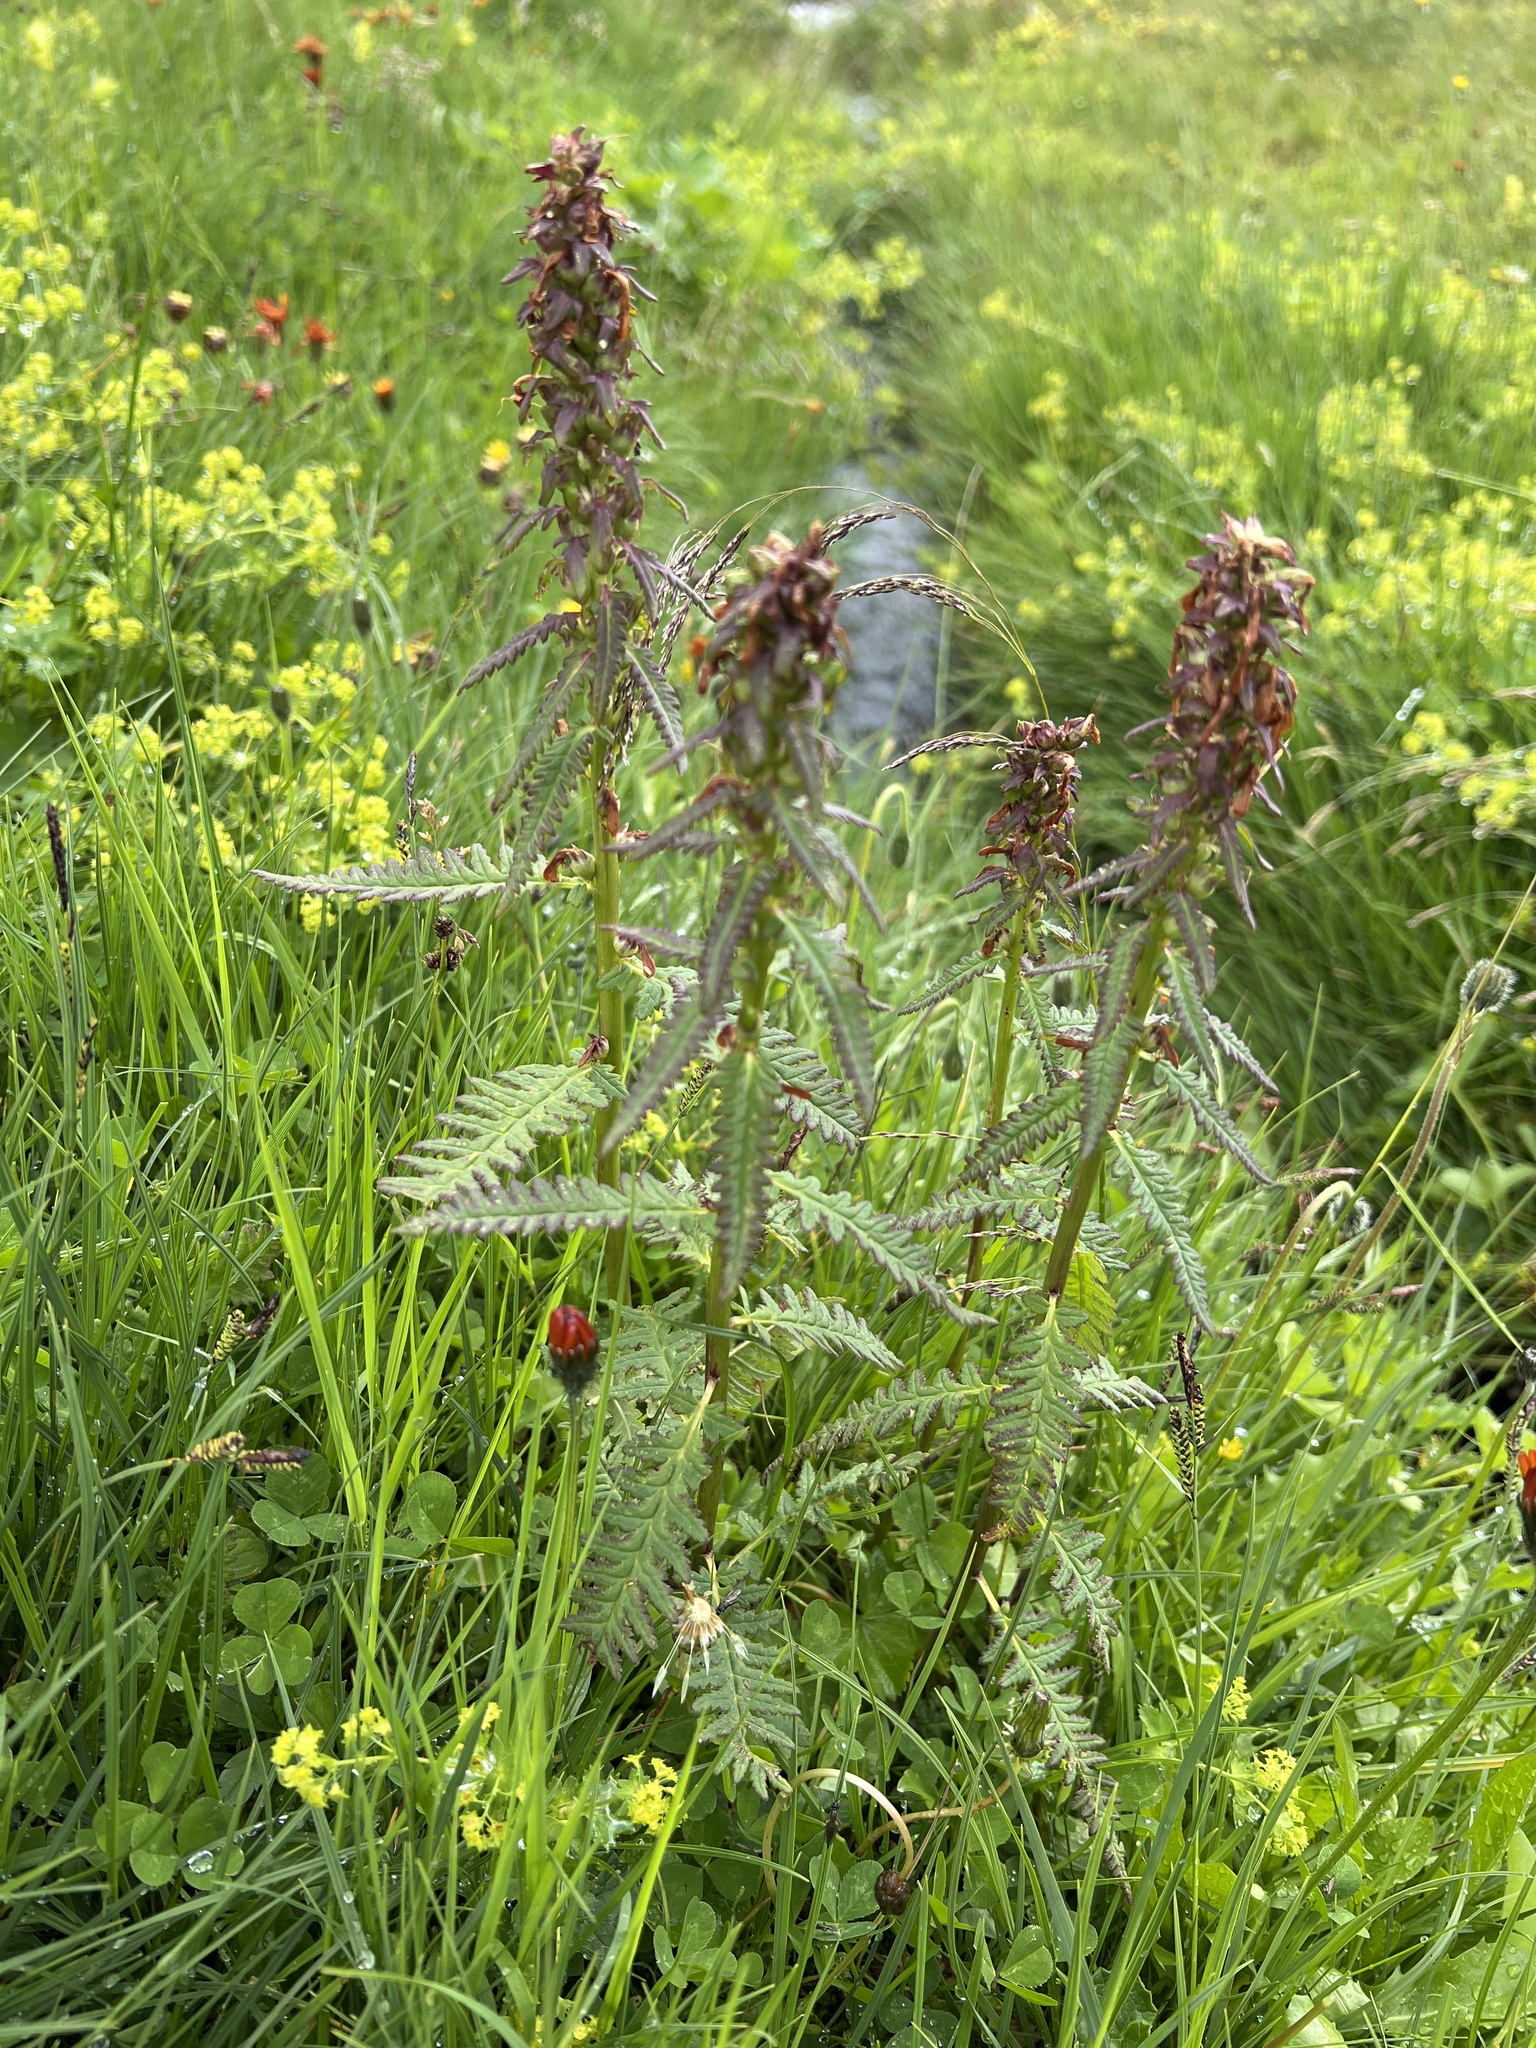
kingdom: Plantae
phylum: Tracheophyta
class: Magnoliopsida
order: Lamiales
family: Orobanchaceae
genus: Pedicularis
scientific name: Pedicularis recutita
